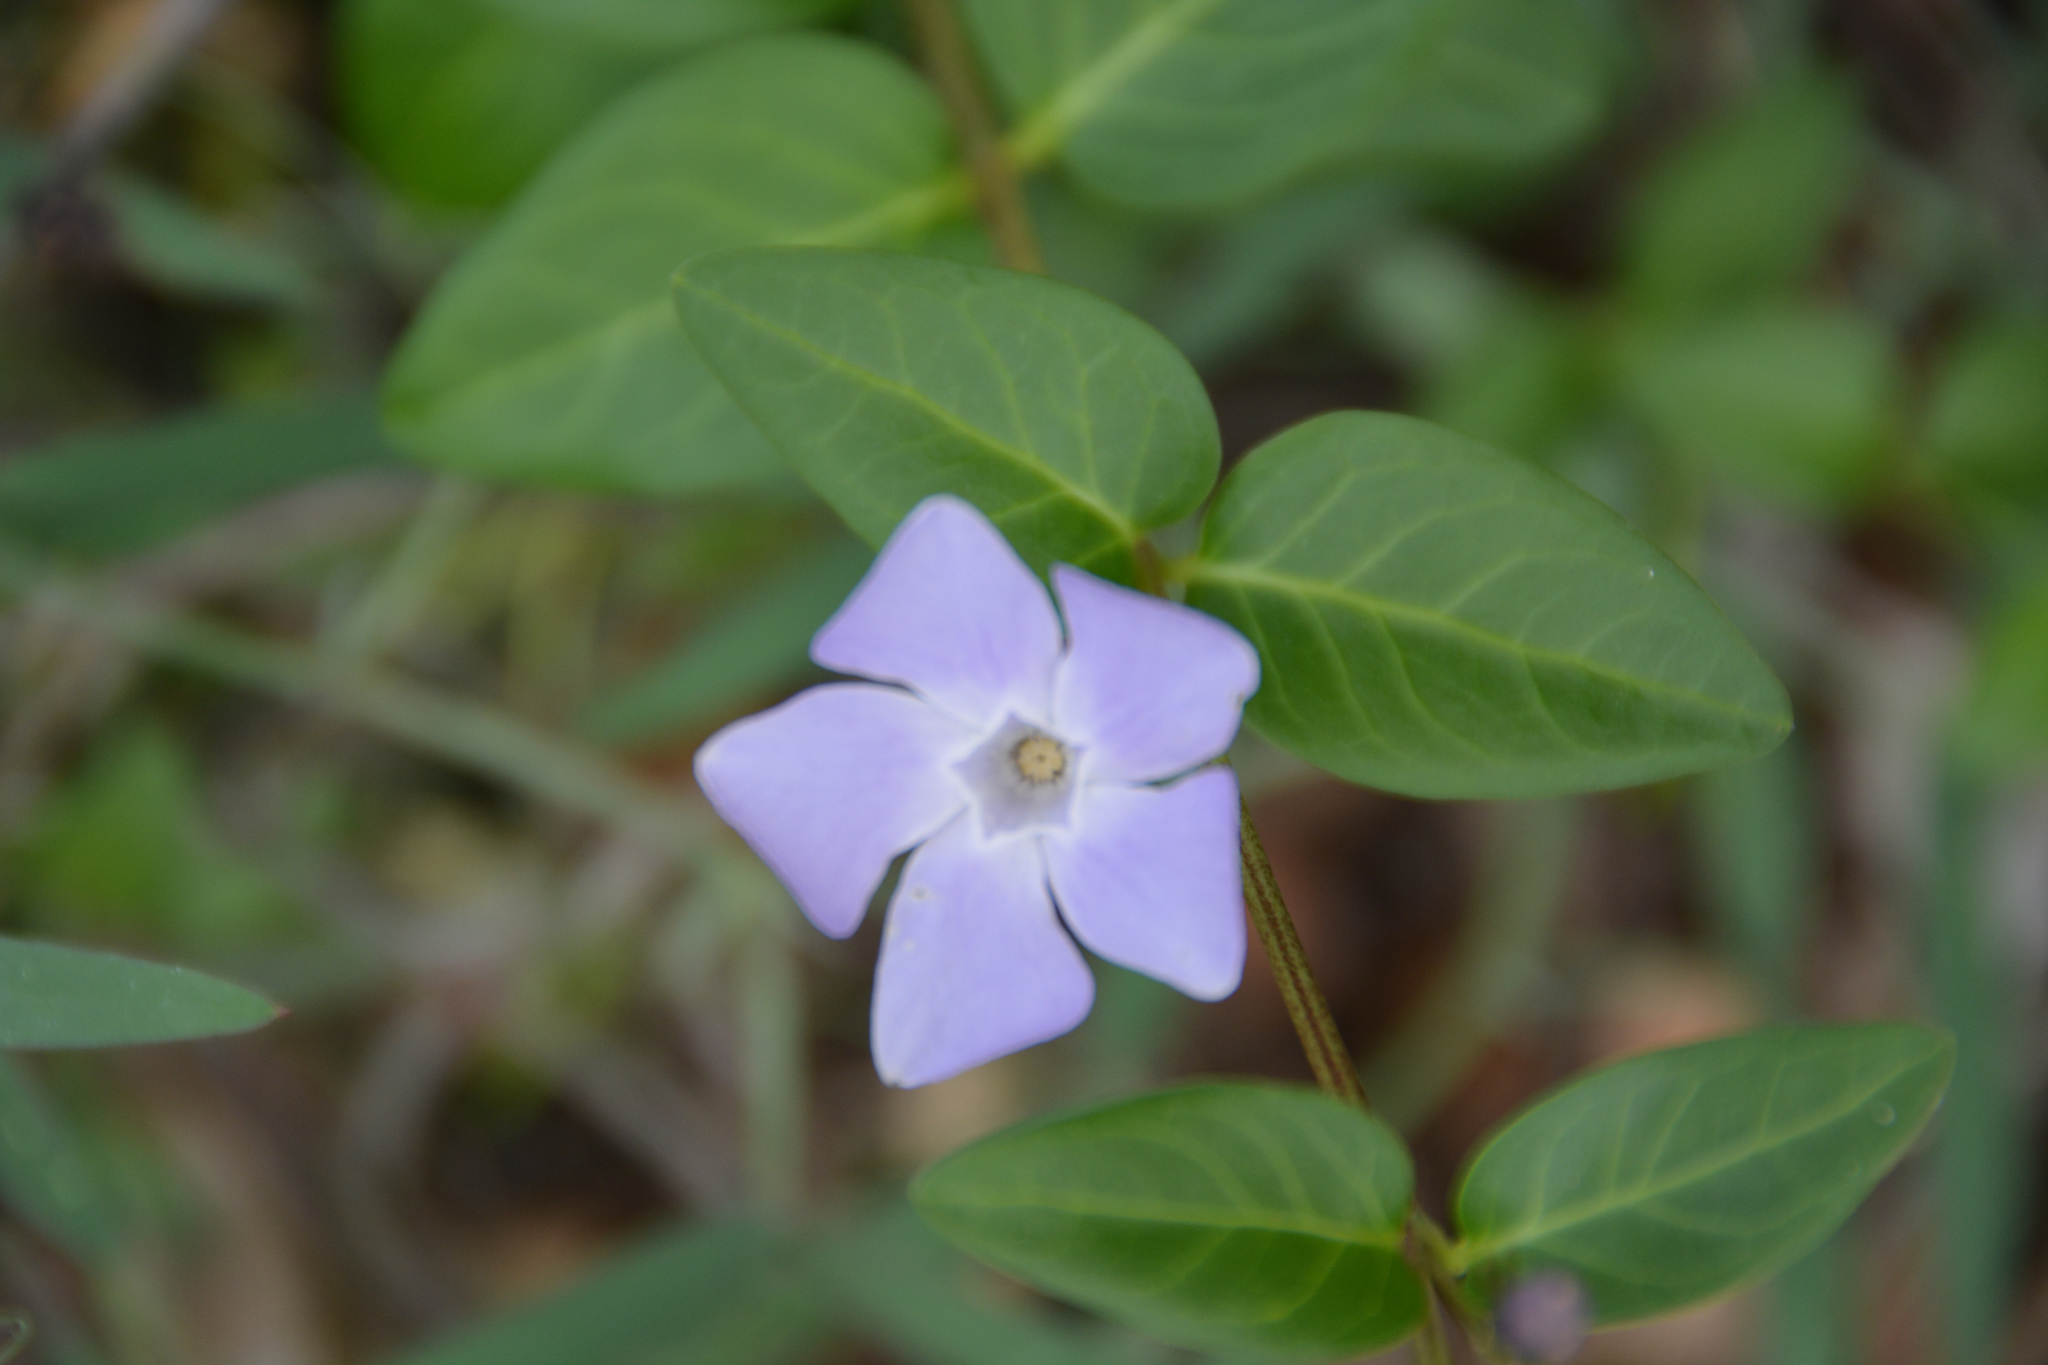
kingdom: Plantae
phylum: Tracheophyta
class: Magnoliopsida
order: Gentianales
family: Apocynaceae
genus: Vinca
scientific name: Vinca difformis
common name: Intermediate periwinkle
